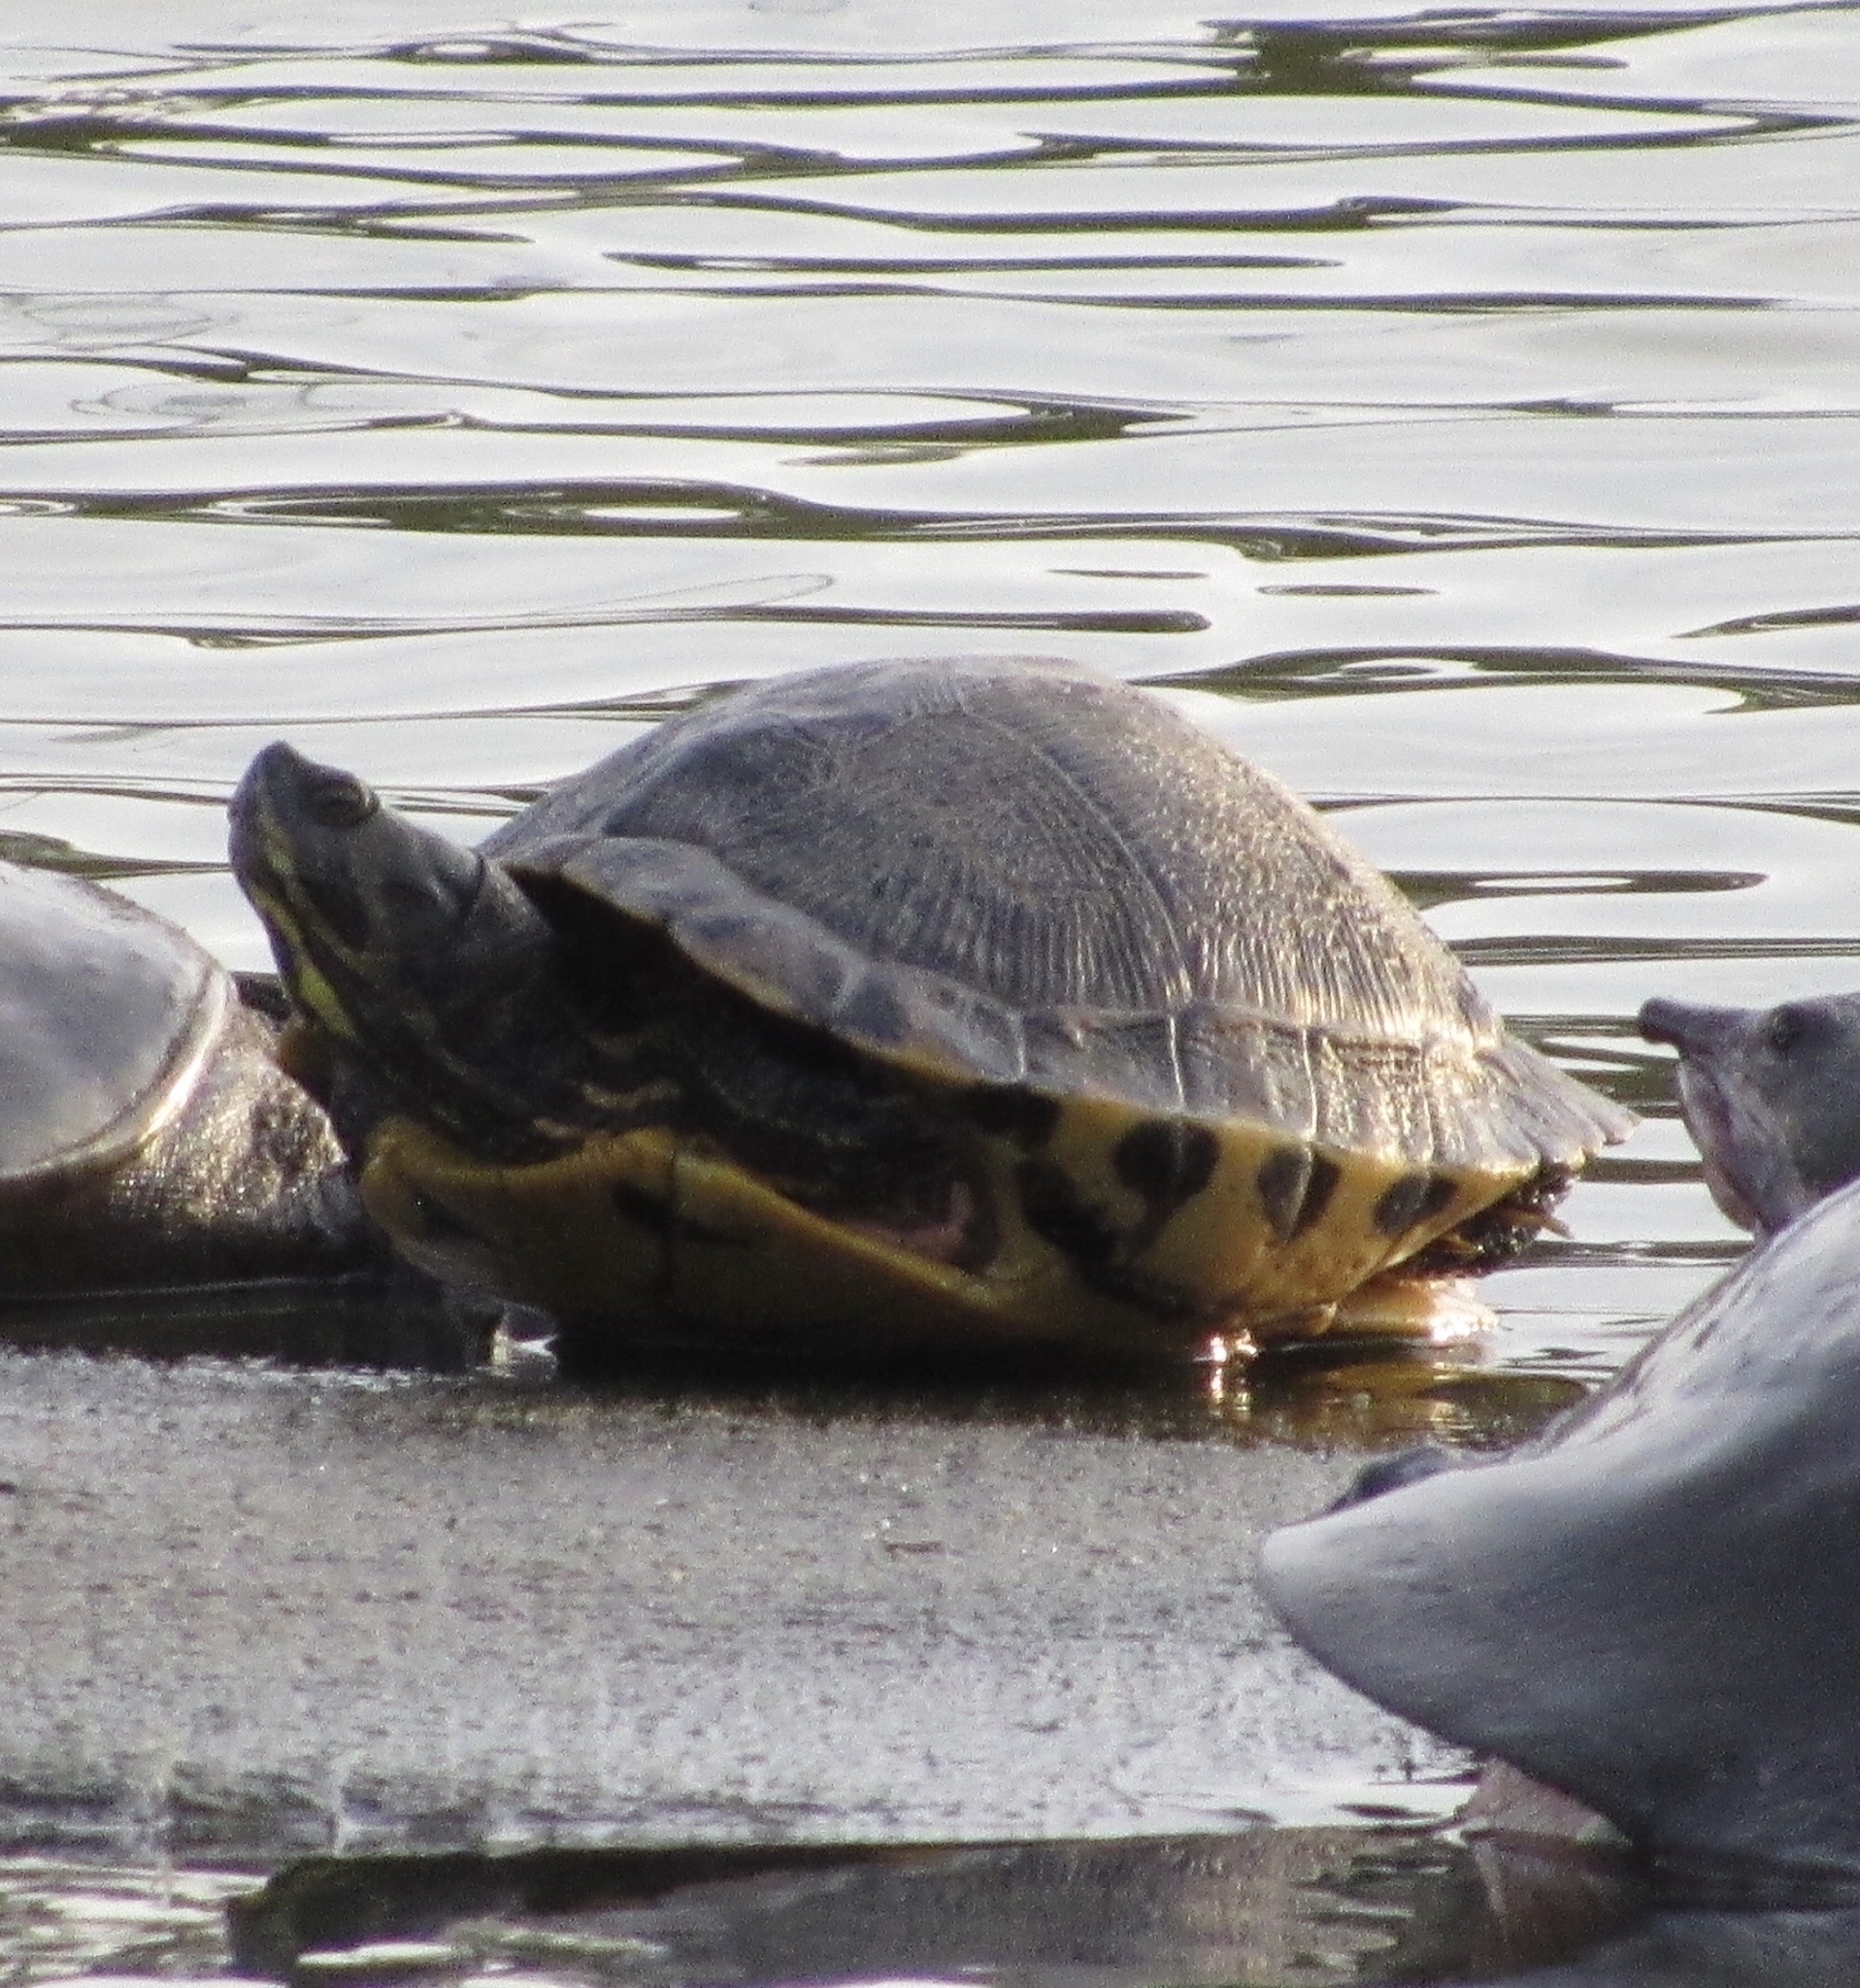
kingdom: Animalia
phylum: Chordata
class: Testudines
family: Emydidae
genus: Trachemys
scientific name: Trachemys scripta
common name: Slider
